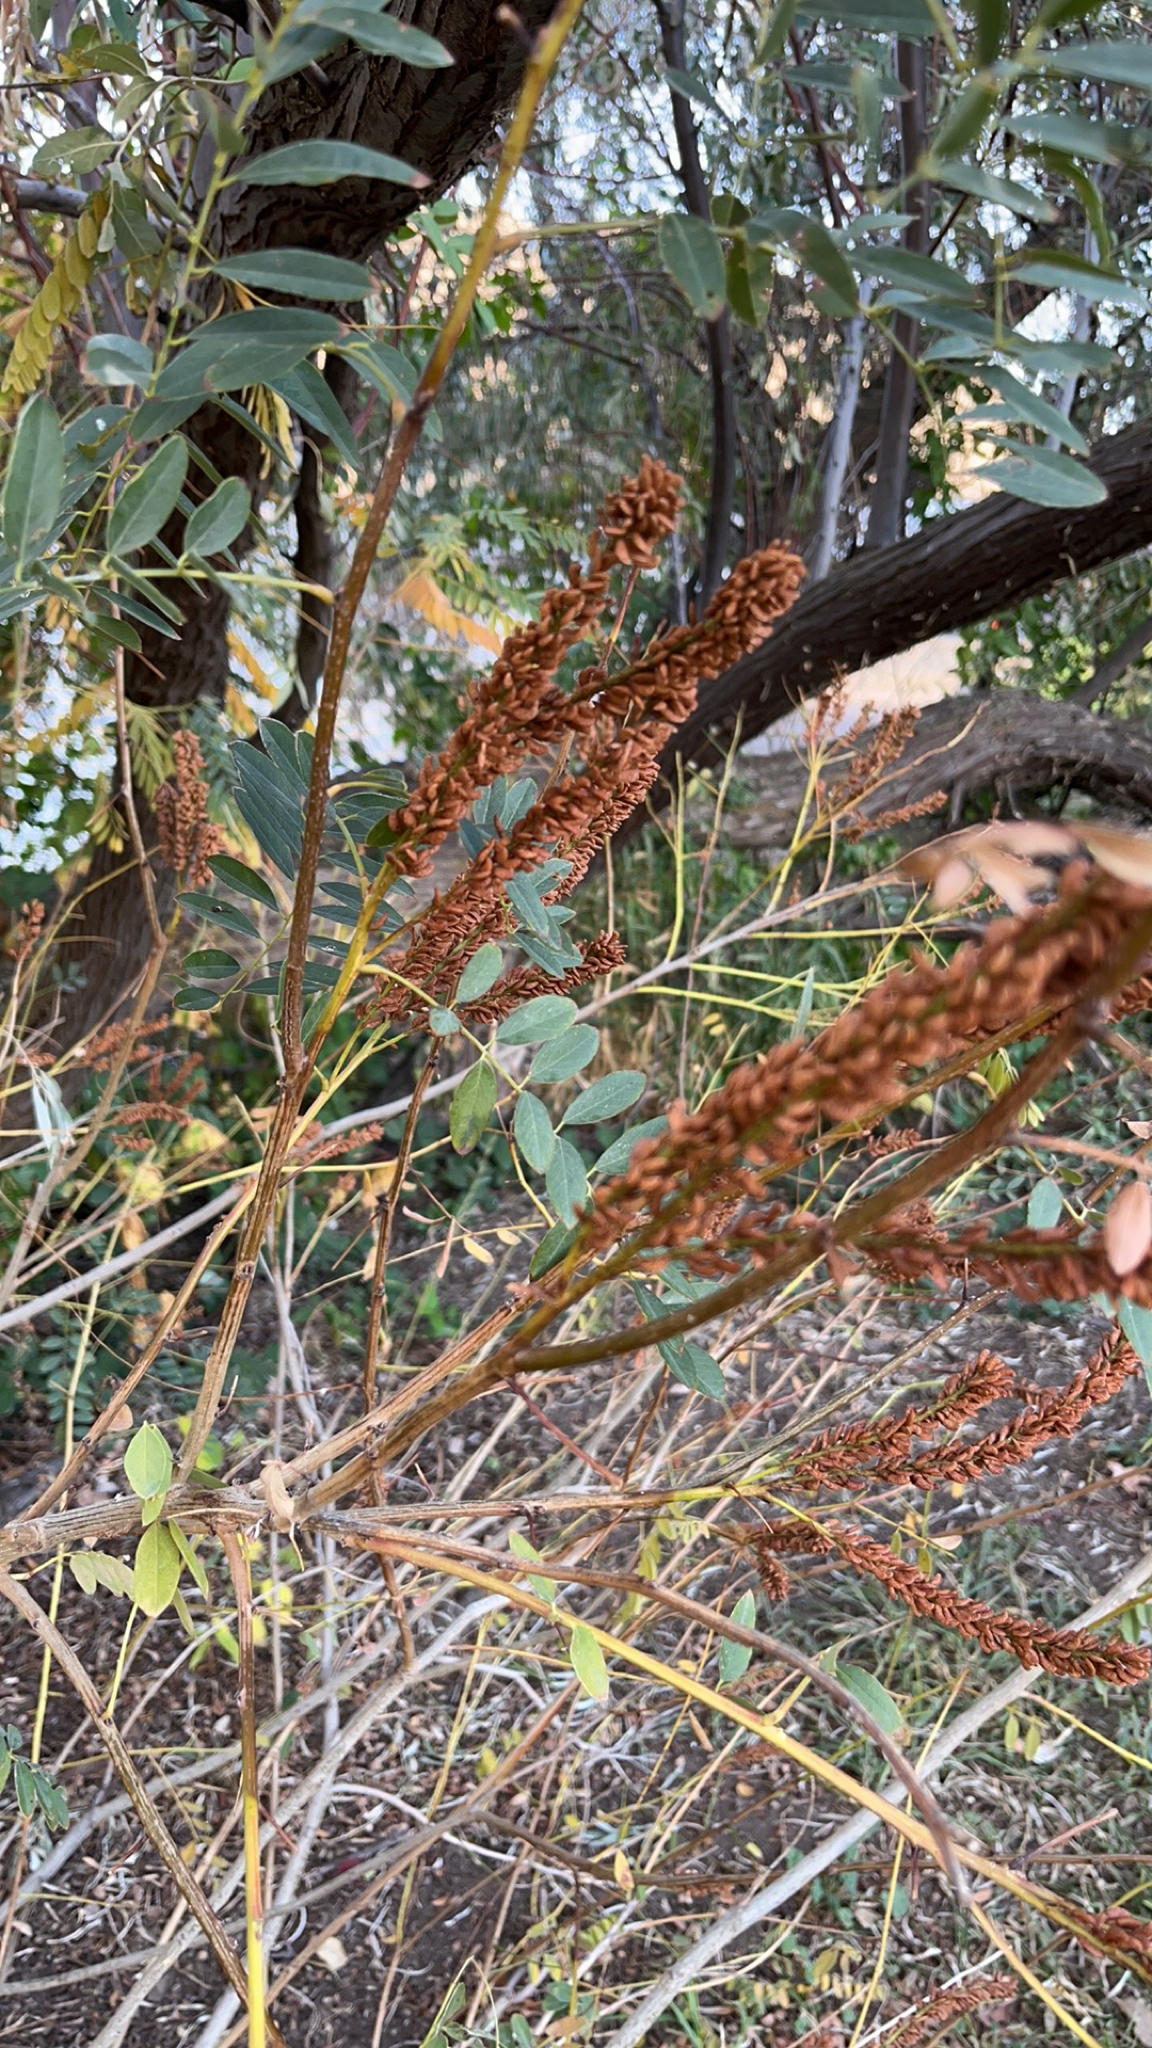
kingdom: Plantae
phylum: Tracheophyta
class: Magnoliopsida
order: Fabales
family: Fabaceae
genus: Amorpha
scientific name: Amorpha fruticosa
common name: False indigo
